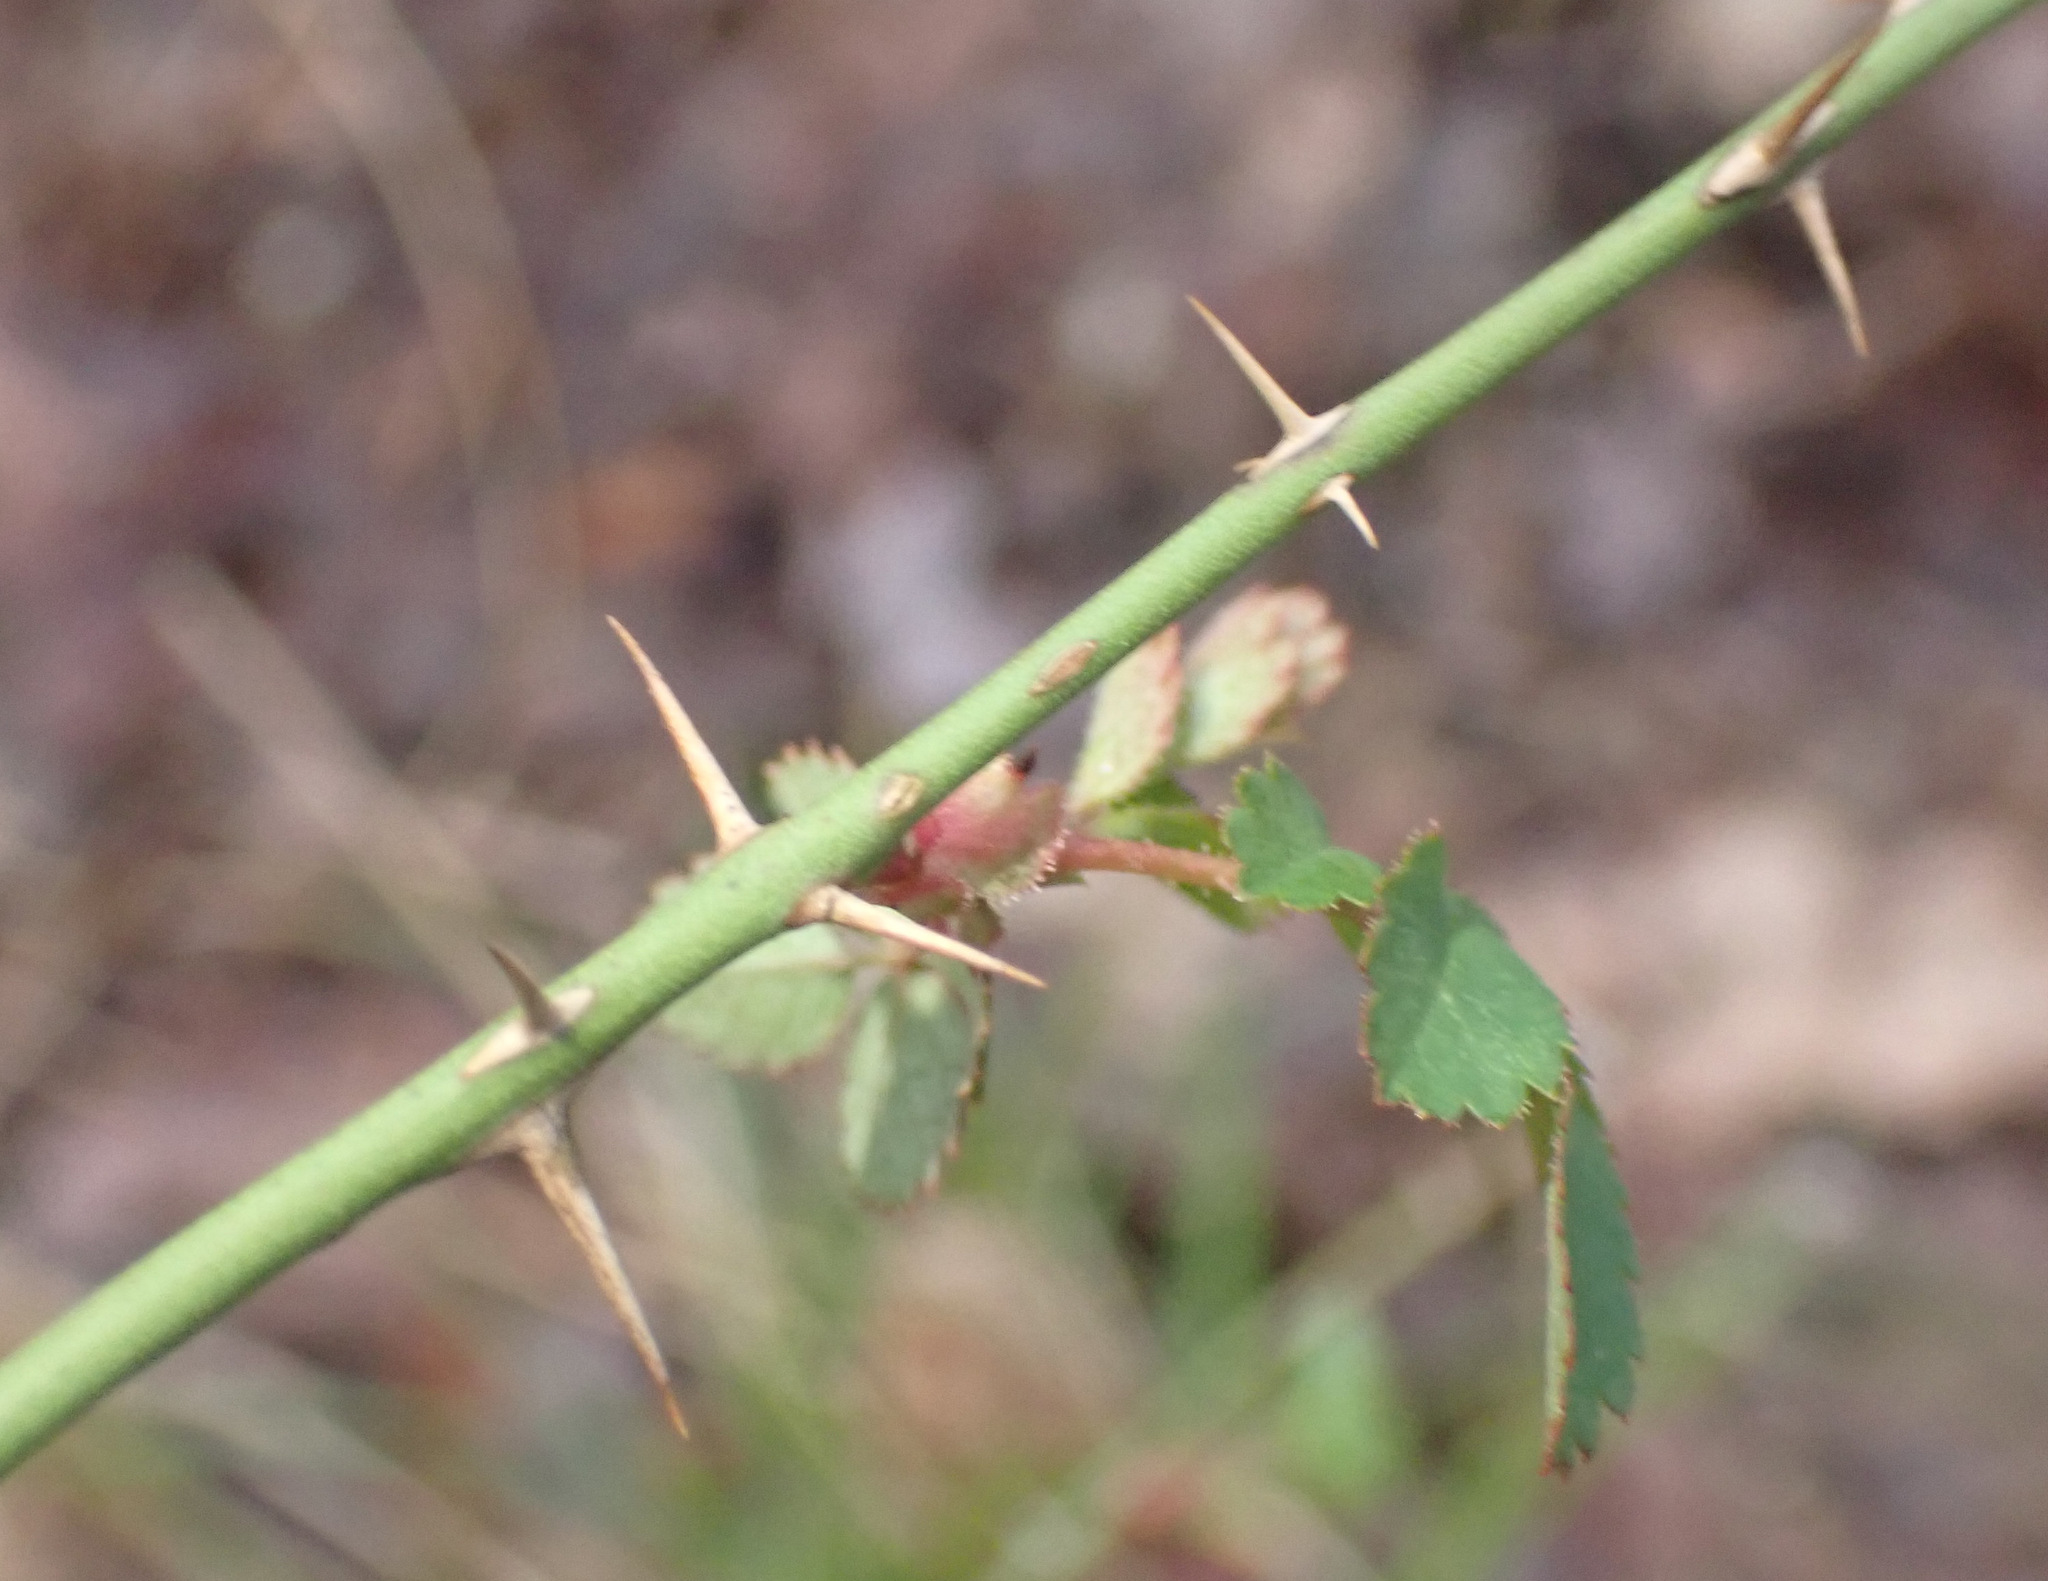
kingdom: Plantae
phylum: Tracheophyta
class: Magnoliopsida
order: Rosales
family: Rosaceae
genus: Rosa
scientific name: Rosa arvensis
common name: Field rose
